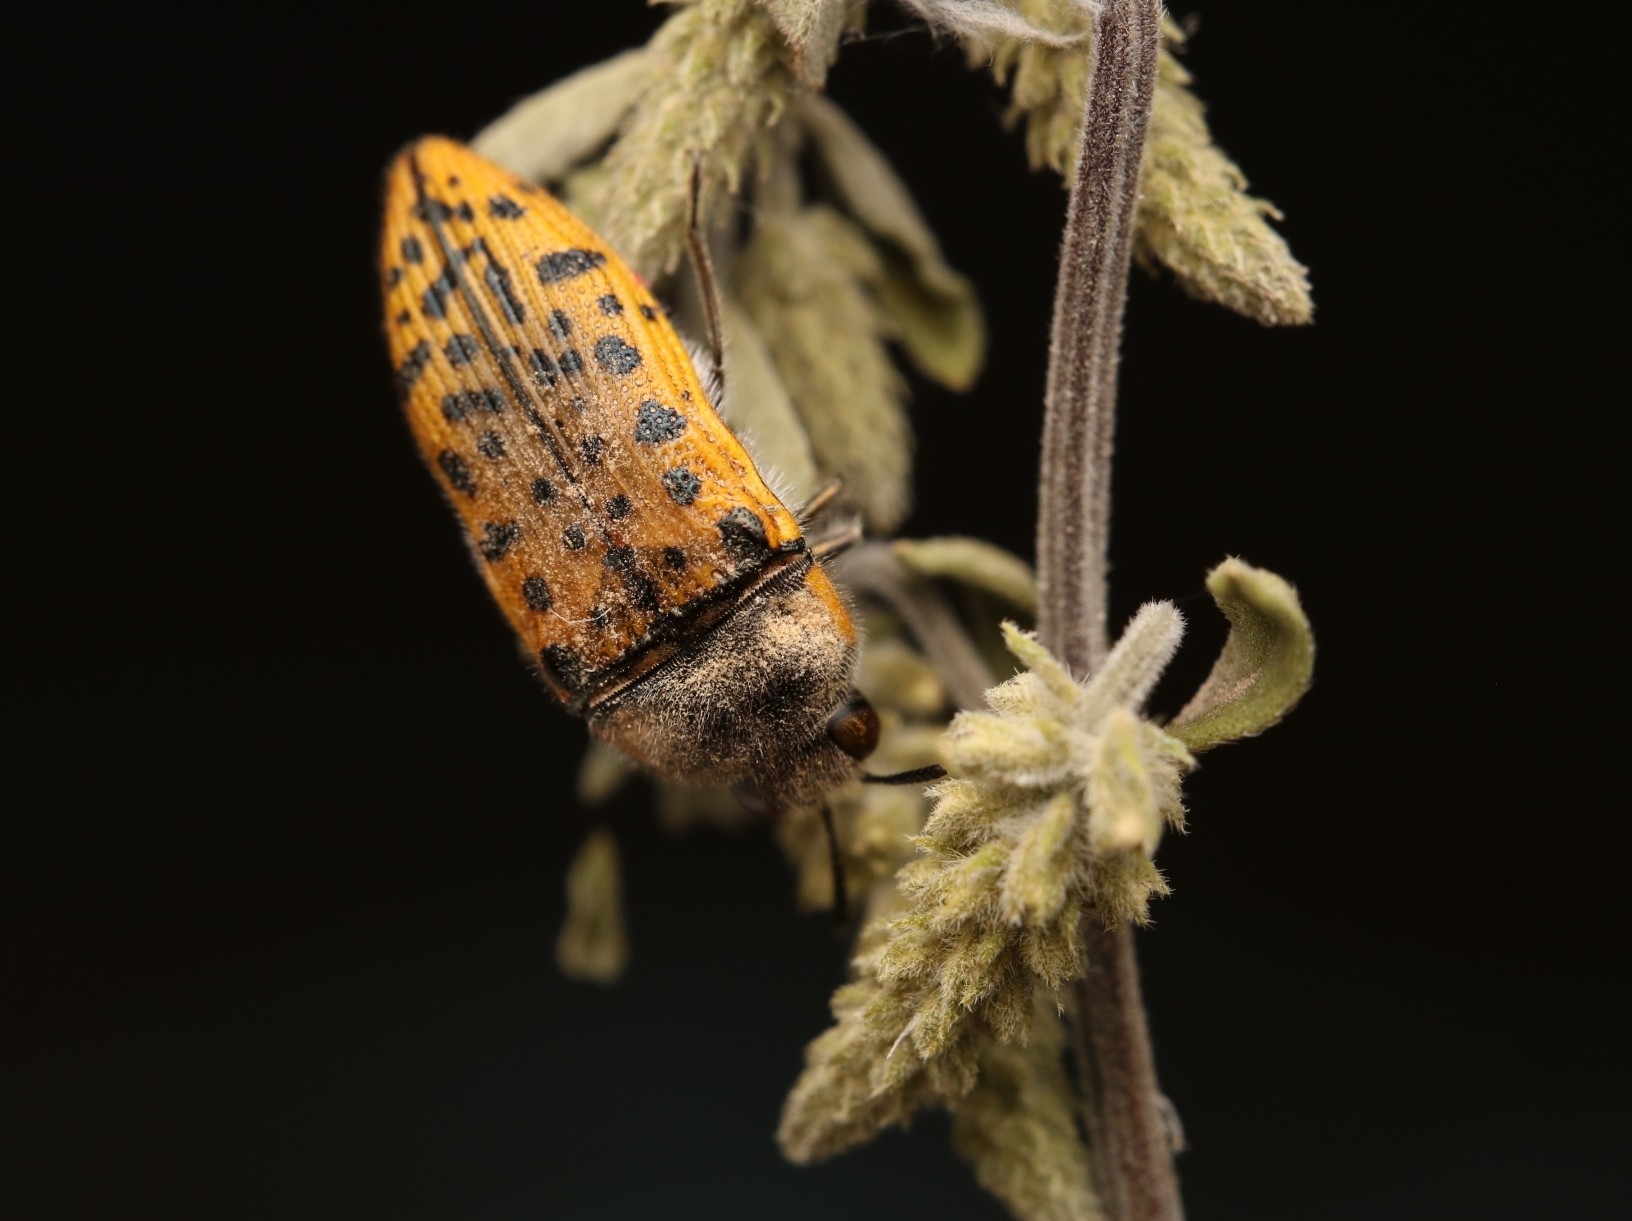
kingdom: Animalia
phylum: Arthropoda
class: Insecta
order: Coleoptera
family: Buprestidae
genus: Acmaeodera
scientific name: Acmaeodera princeps
